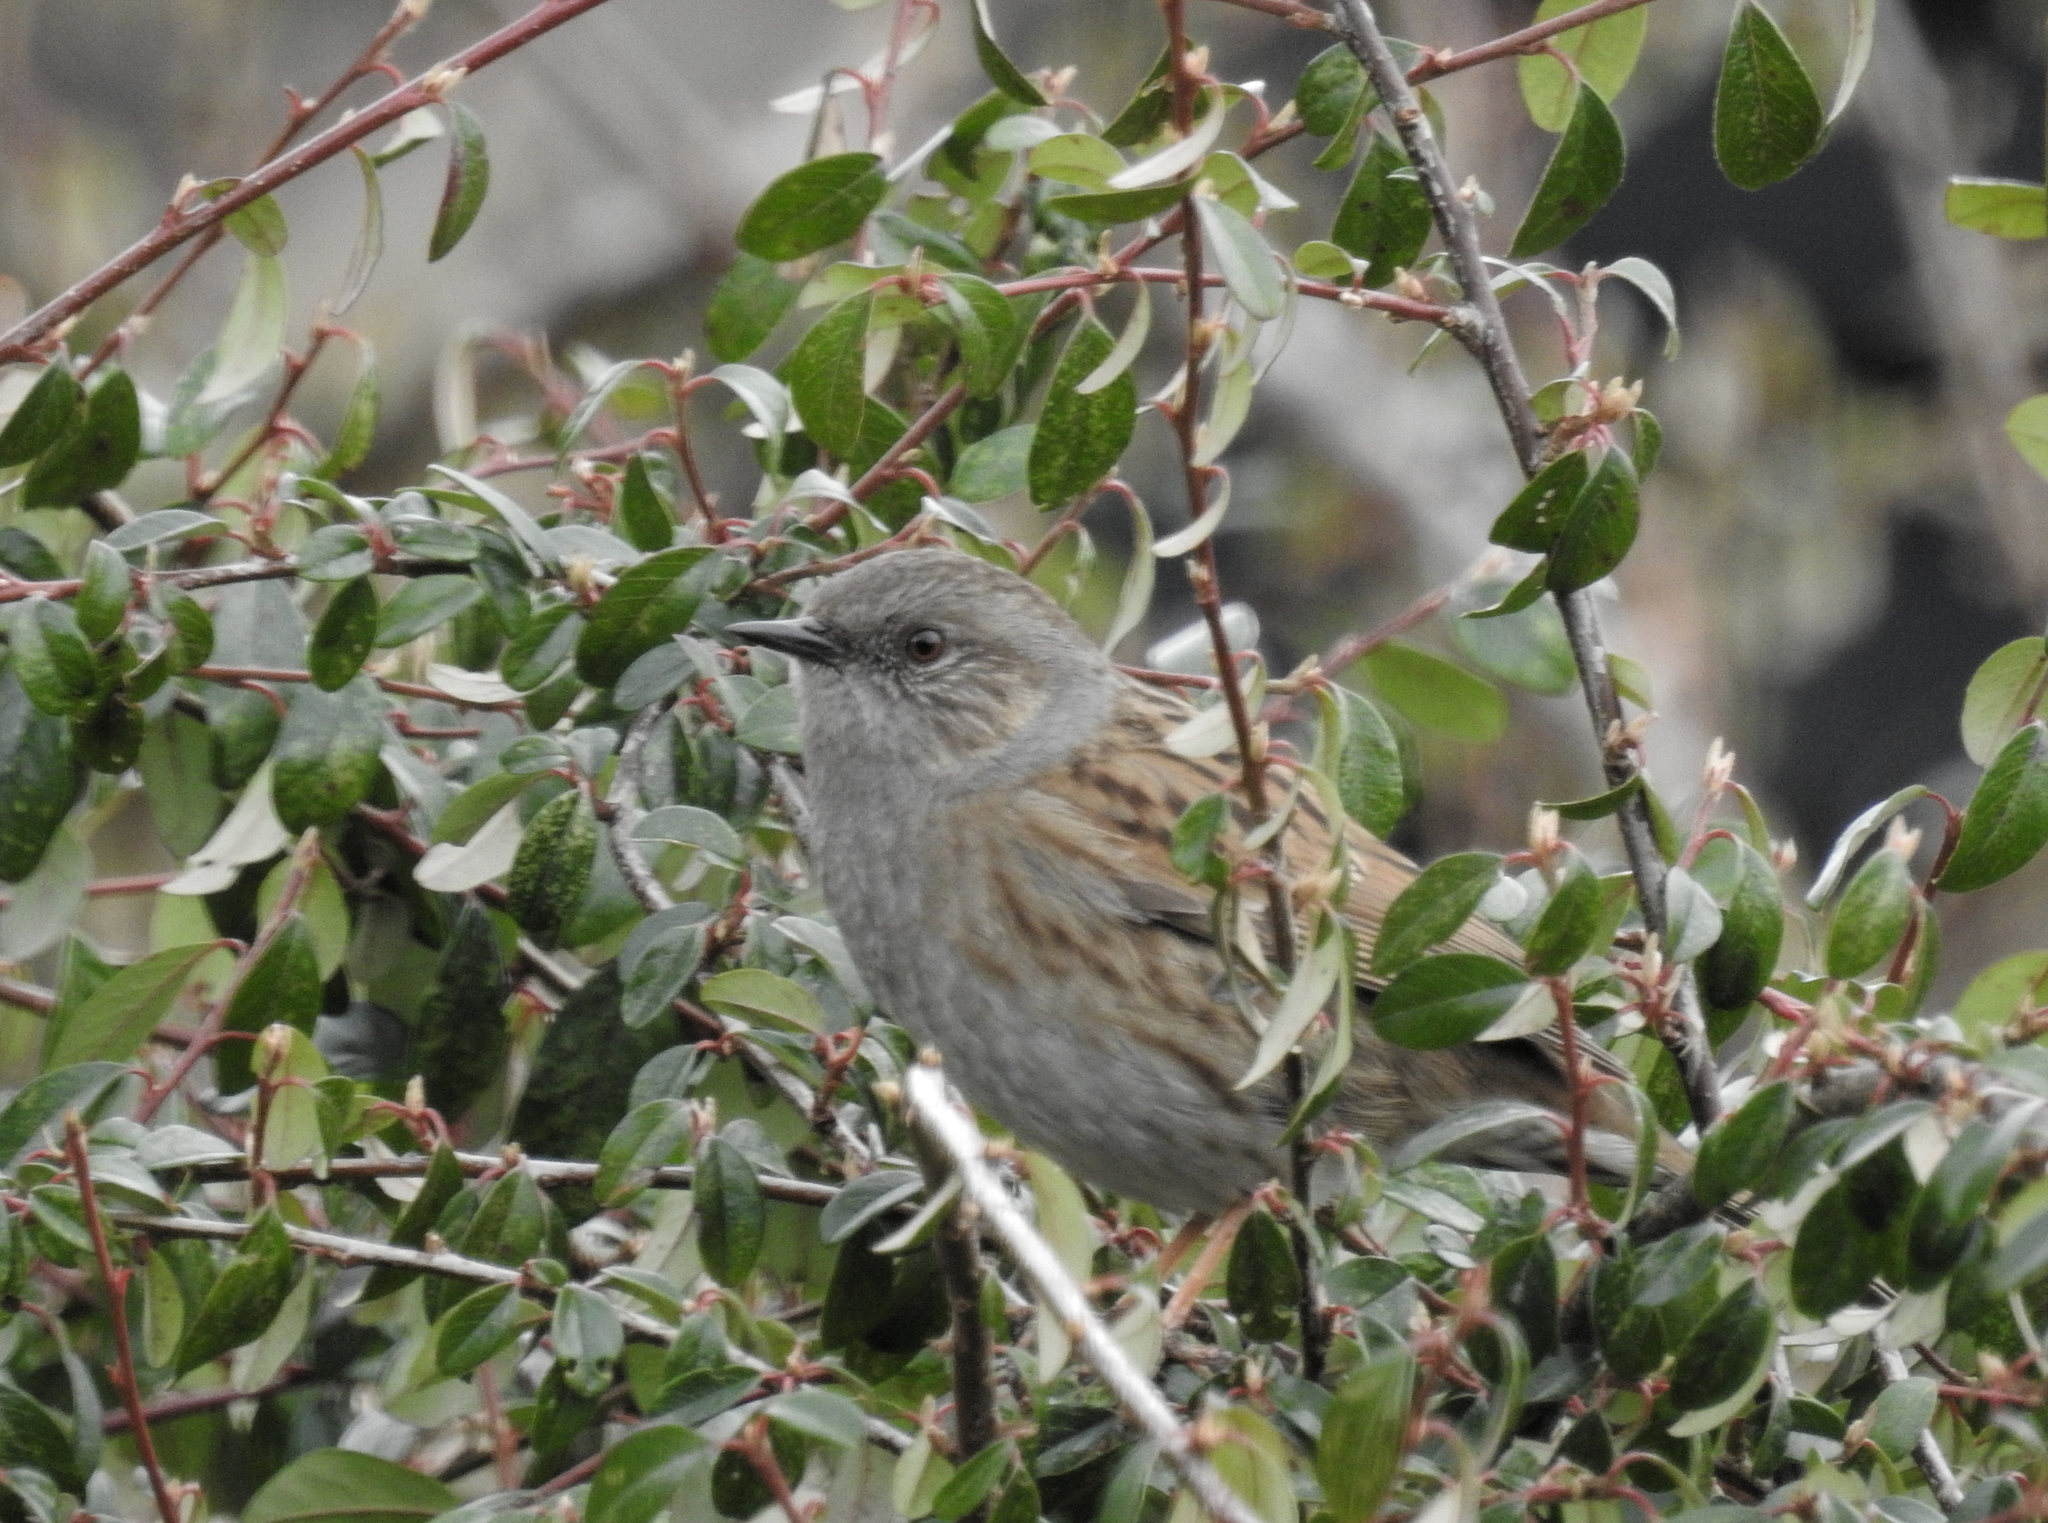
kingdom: Animalia
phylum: Chordata
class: Aves
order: Passeriformes
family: Prunellidae
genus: Prunella
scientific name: Prunella modularis
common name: Dunnock
